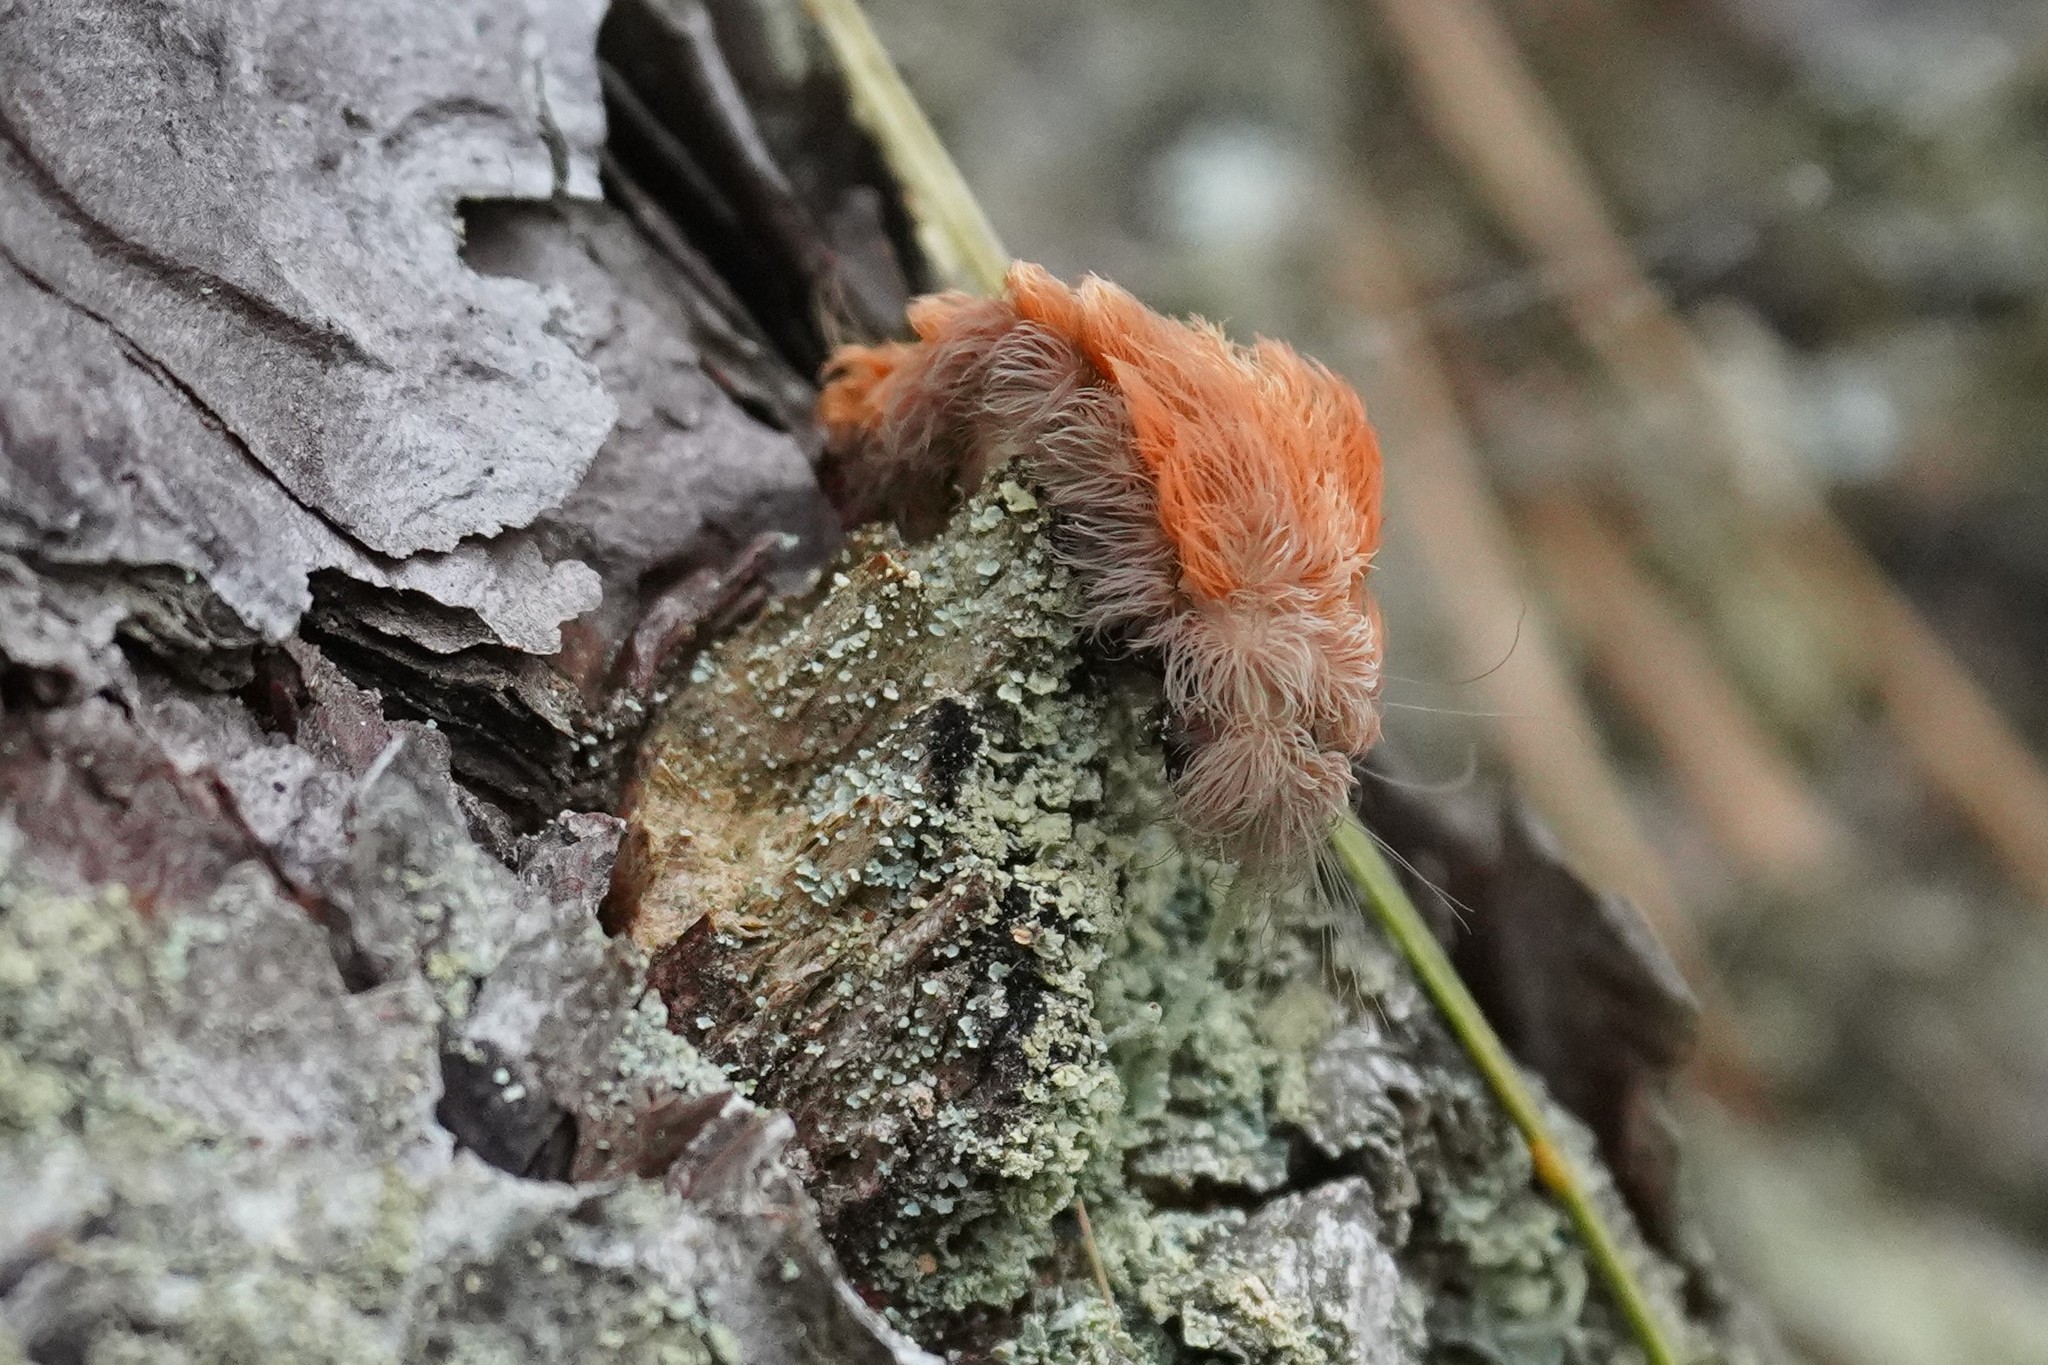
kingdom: Animalia
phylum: Arthropoda
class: Insecta
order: Lepidoptera
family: Megalopygidae
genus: Megalopyge
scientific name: Megalopyge crispata
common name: Black-waved flannel moth
